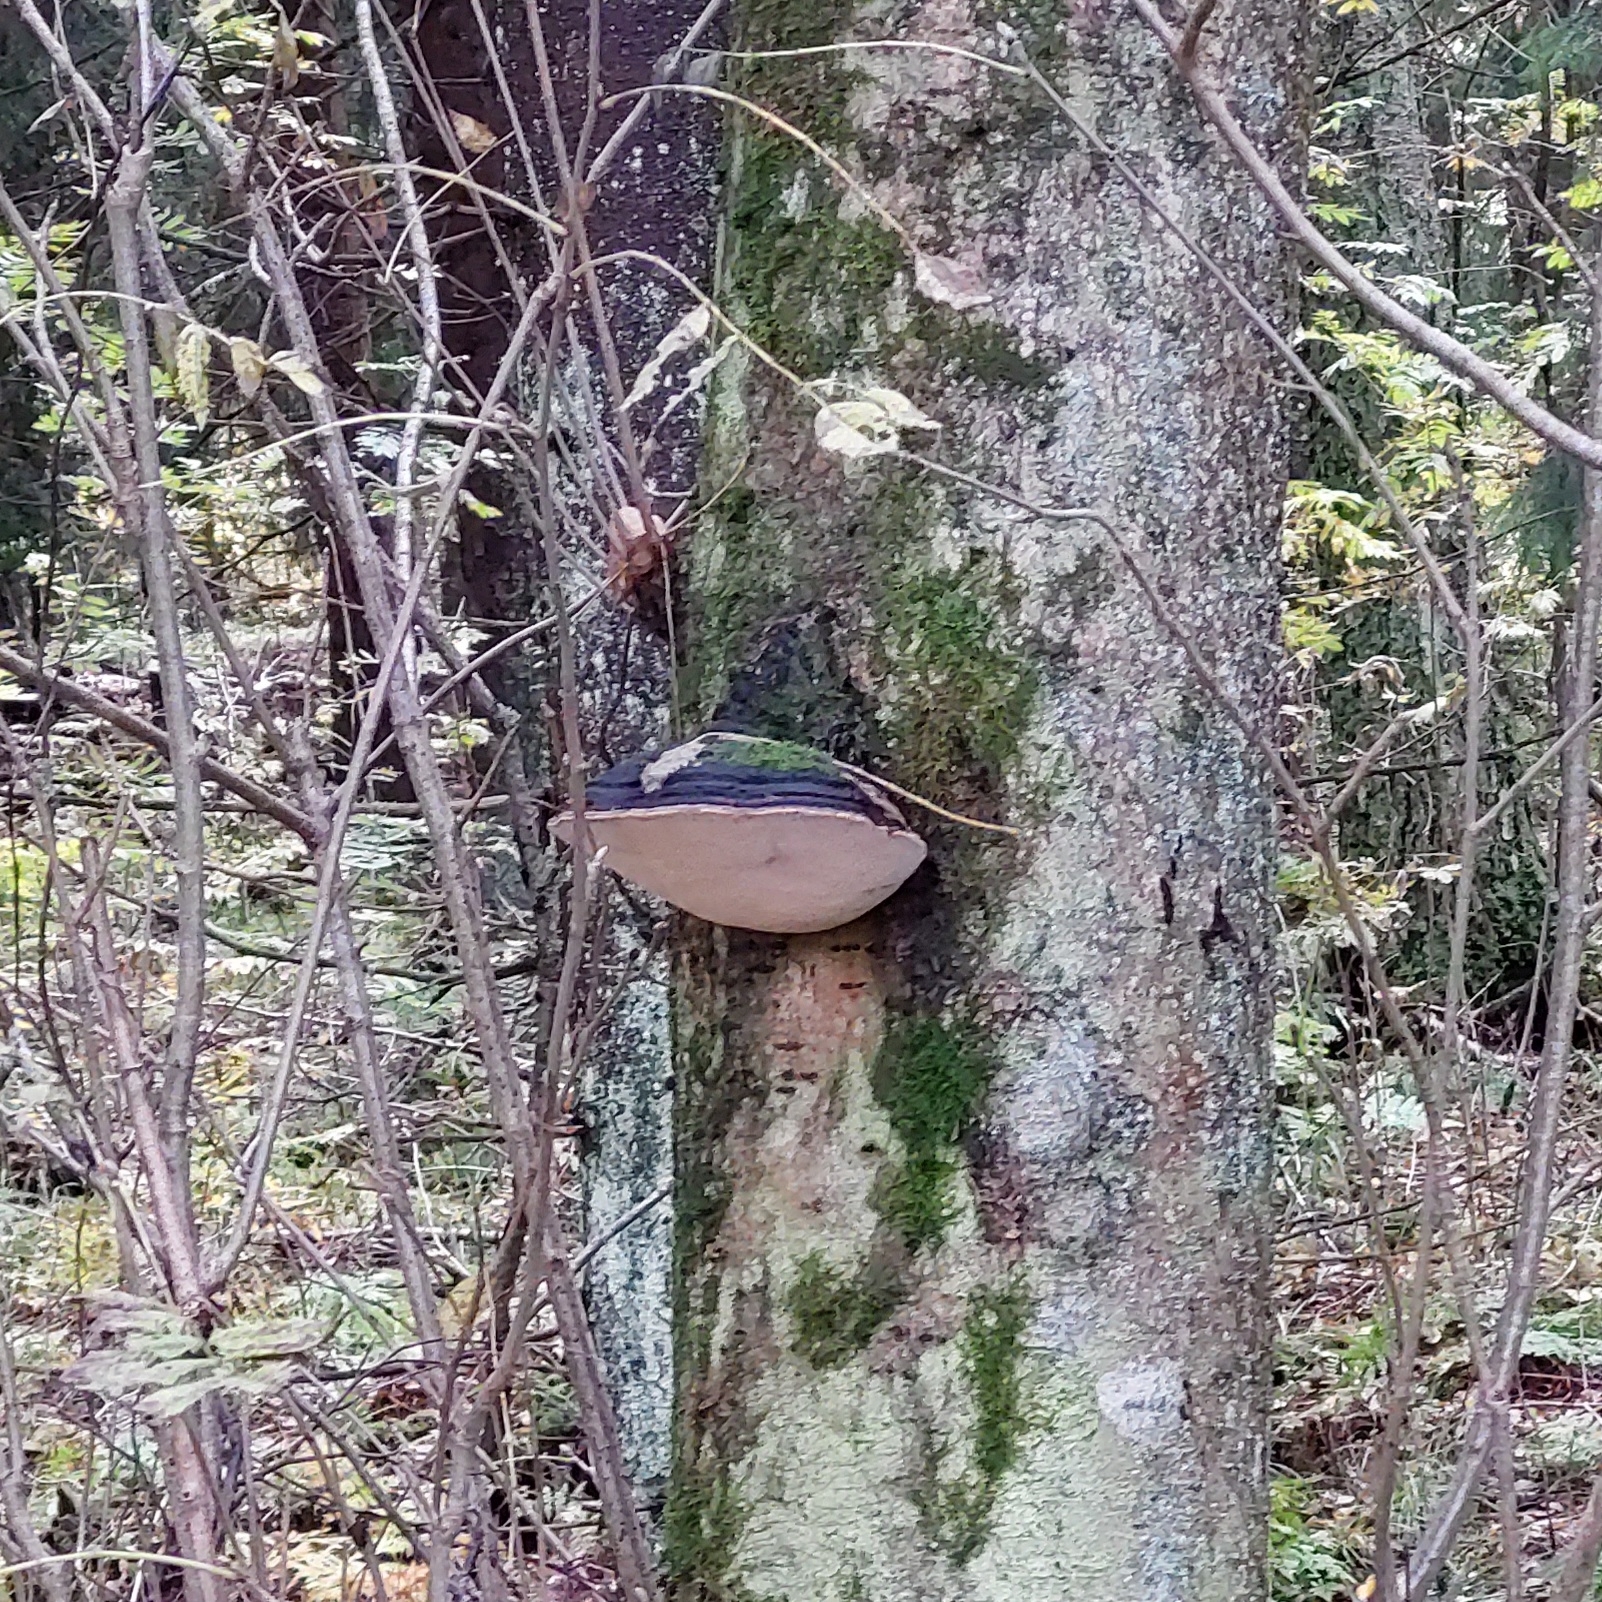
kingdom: Fungi
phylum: Basidiomycota
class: Agaricomycetes
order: Hymenochaetales
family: Hymenochaetaceae
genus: Phellinus
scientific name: Phellinus igniarius
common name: Willow bracket
